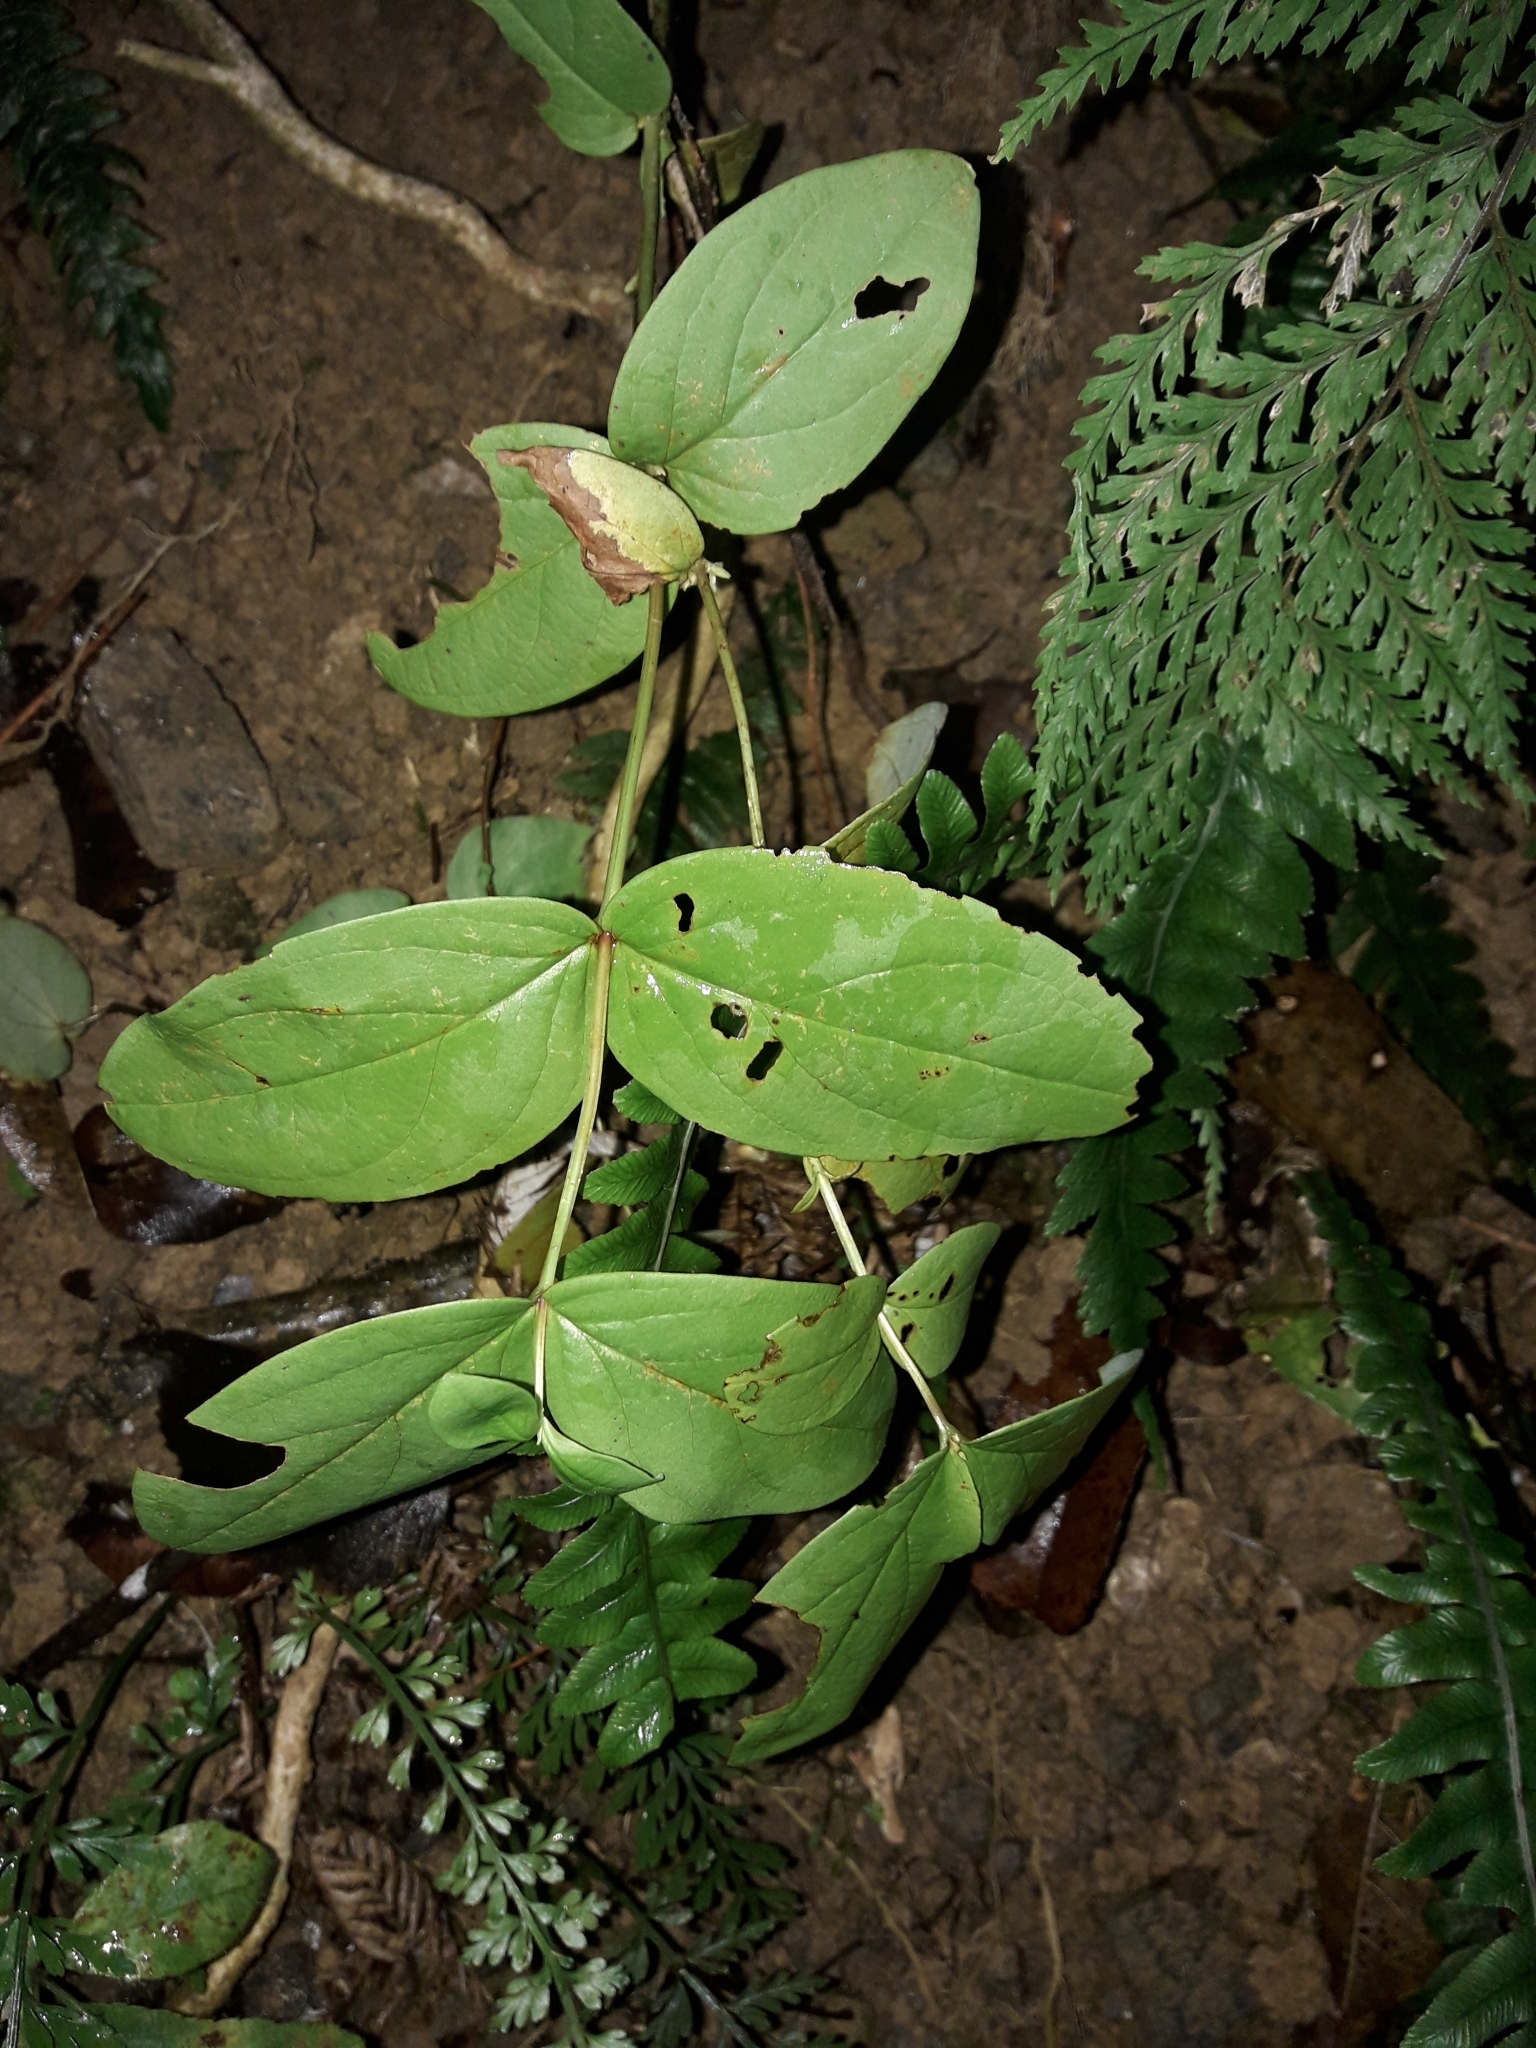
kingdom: Plantae
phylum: Tracheophyta
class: Magnoliopsida
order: Malpighiales
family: Hypericaceae
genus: Hypericum
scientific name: Hypericum androsaemum
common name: Sweet-amber
